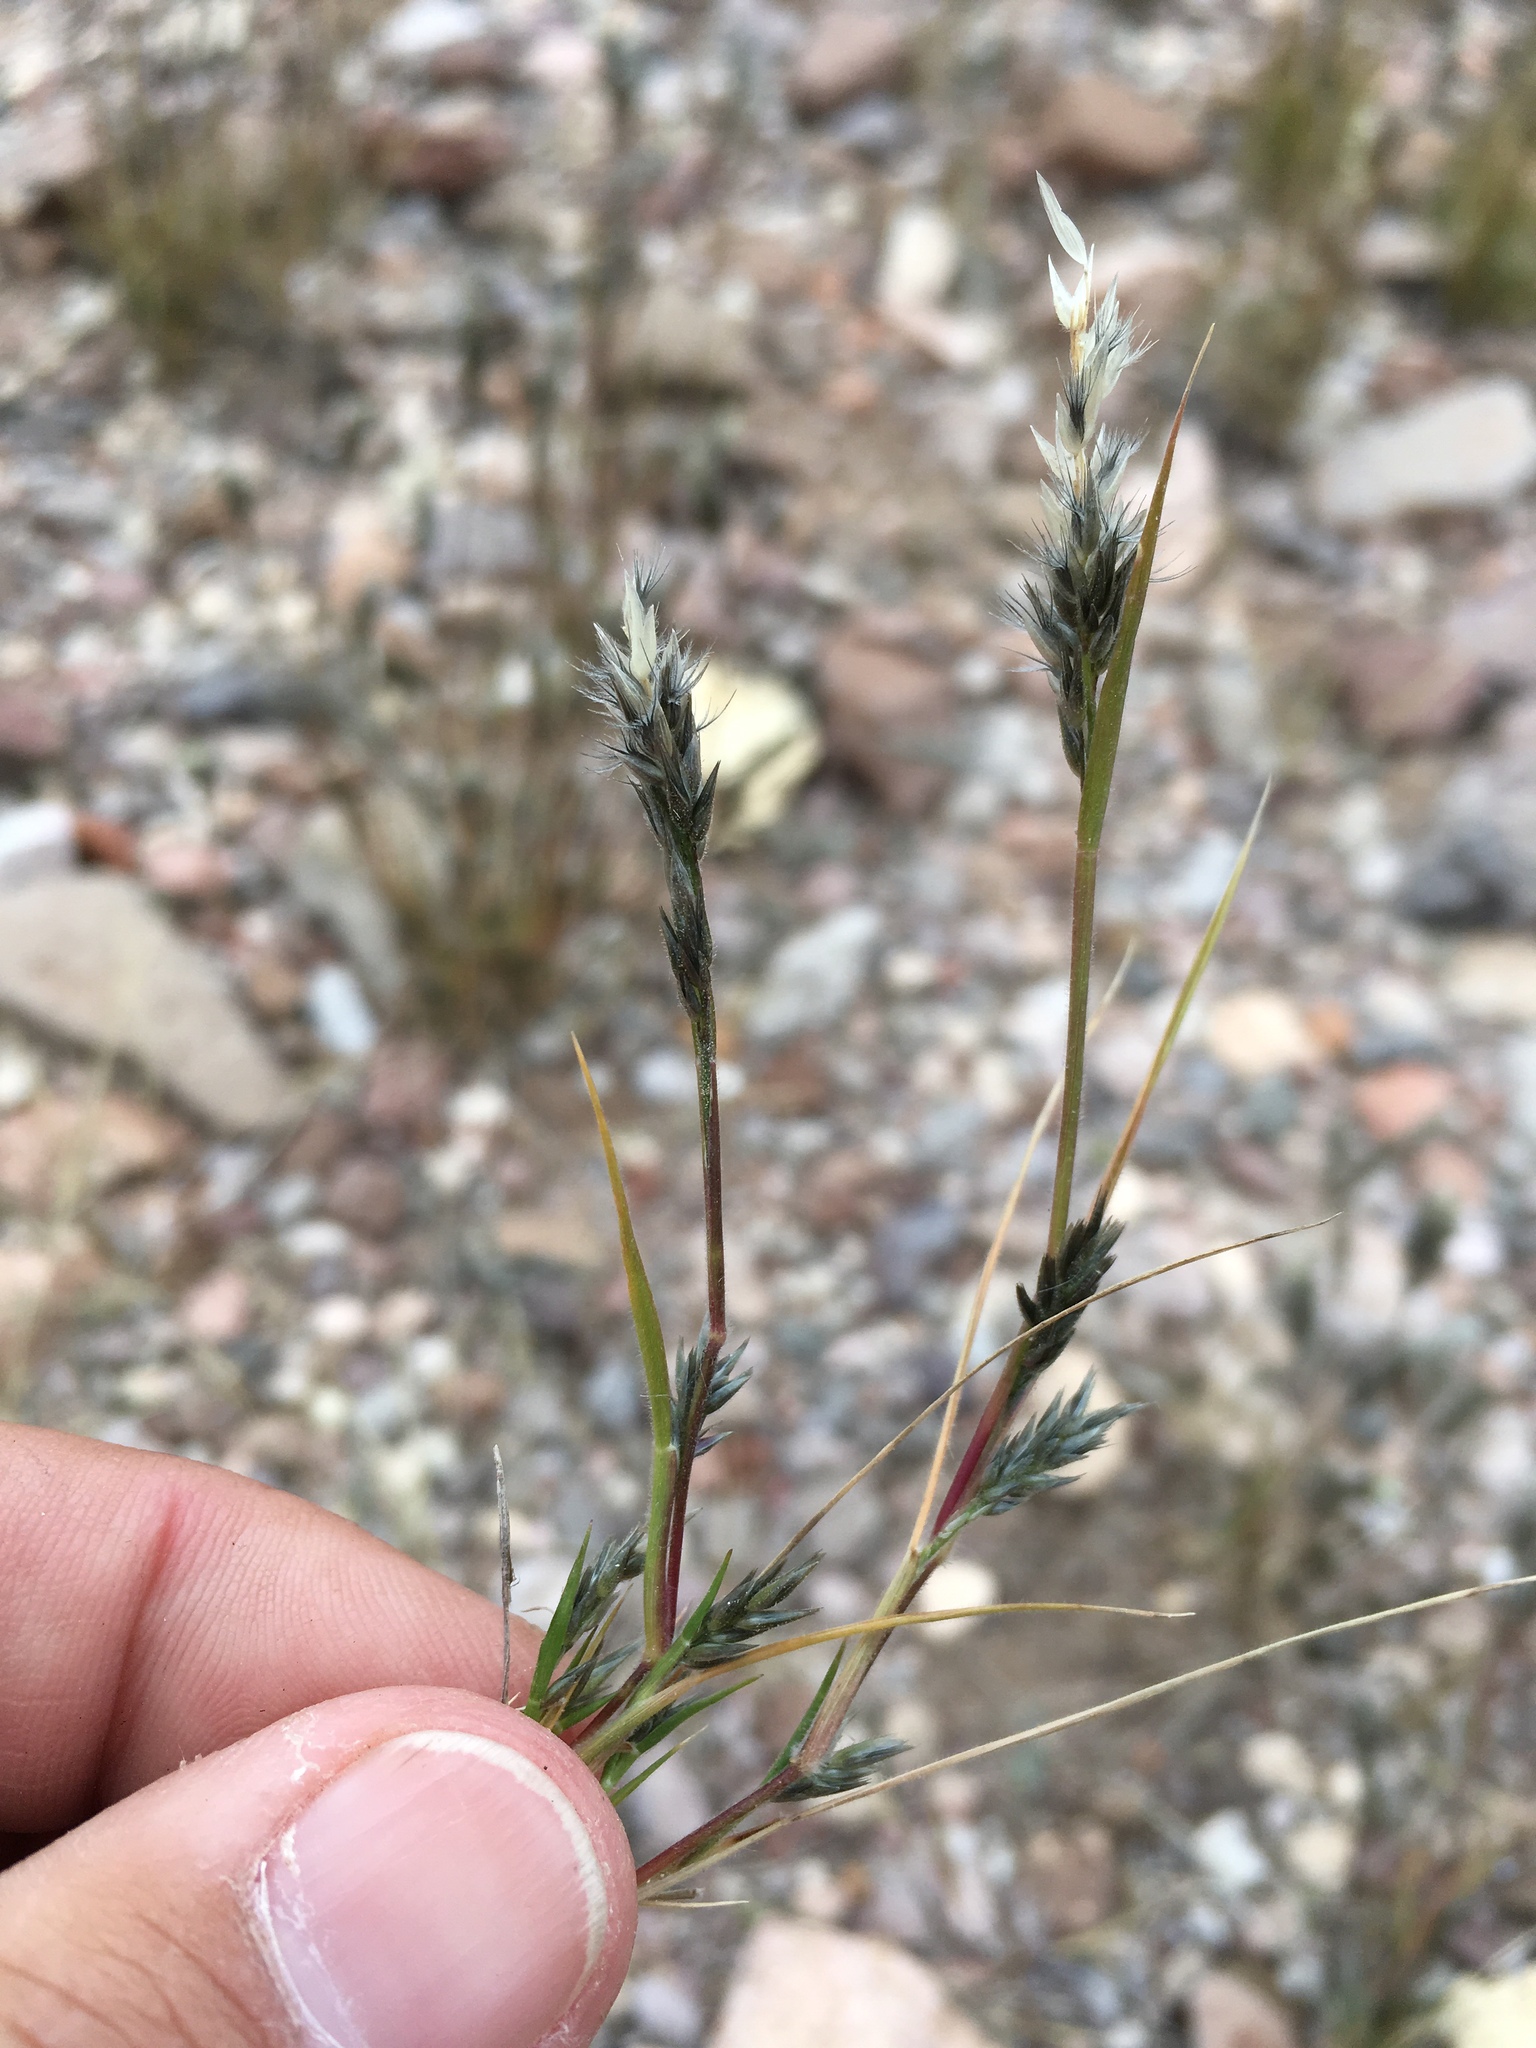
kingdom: Plantae
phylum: Tracheophyta
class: Liliopsida
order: Poales
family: Poaceae
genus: Enneapogon
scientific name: Enneapogon desvauxii
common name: Feather pappus grass
